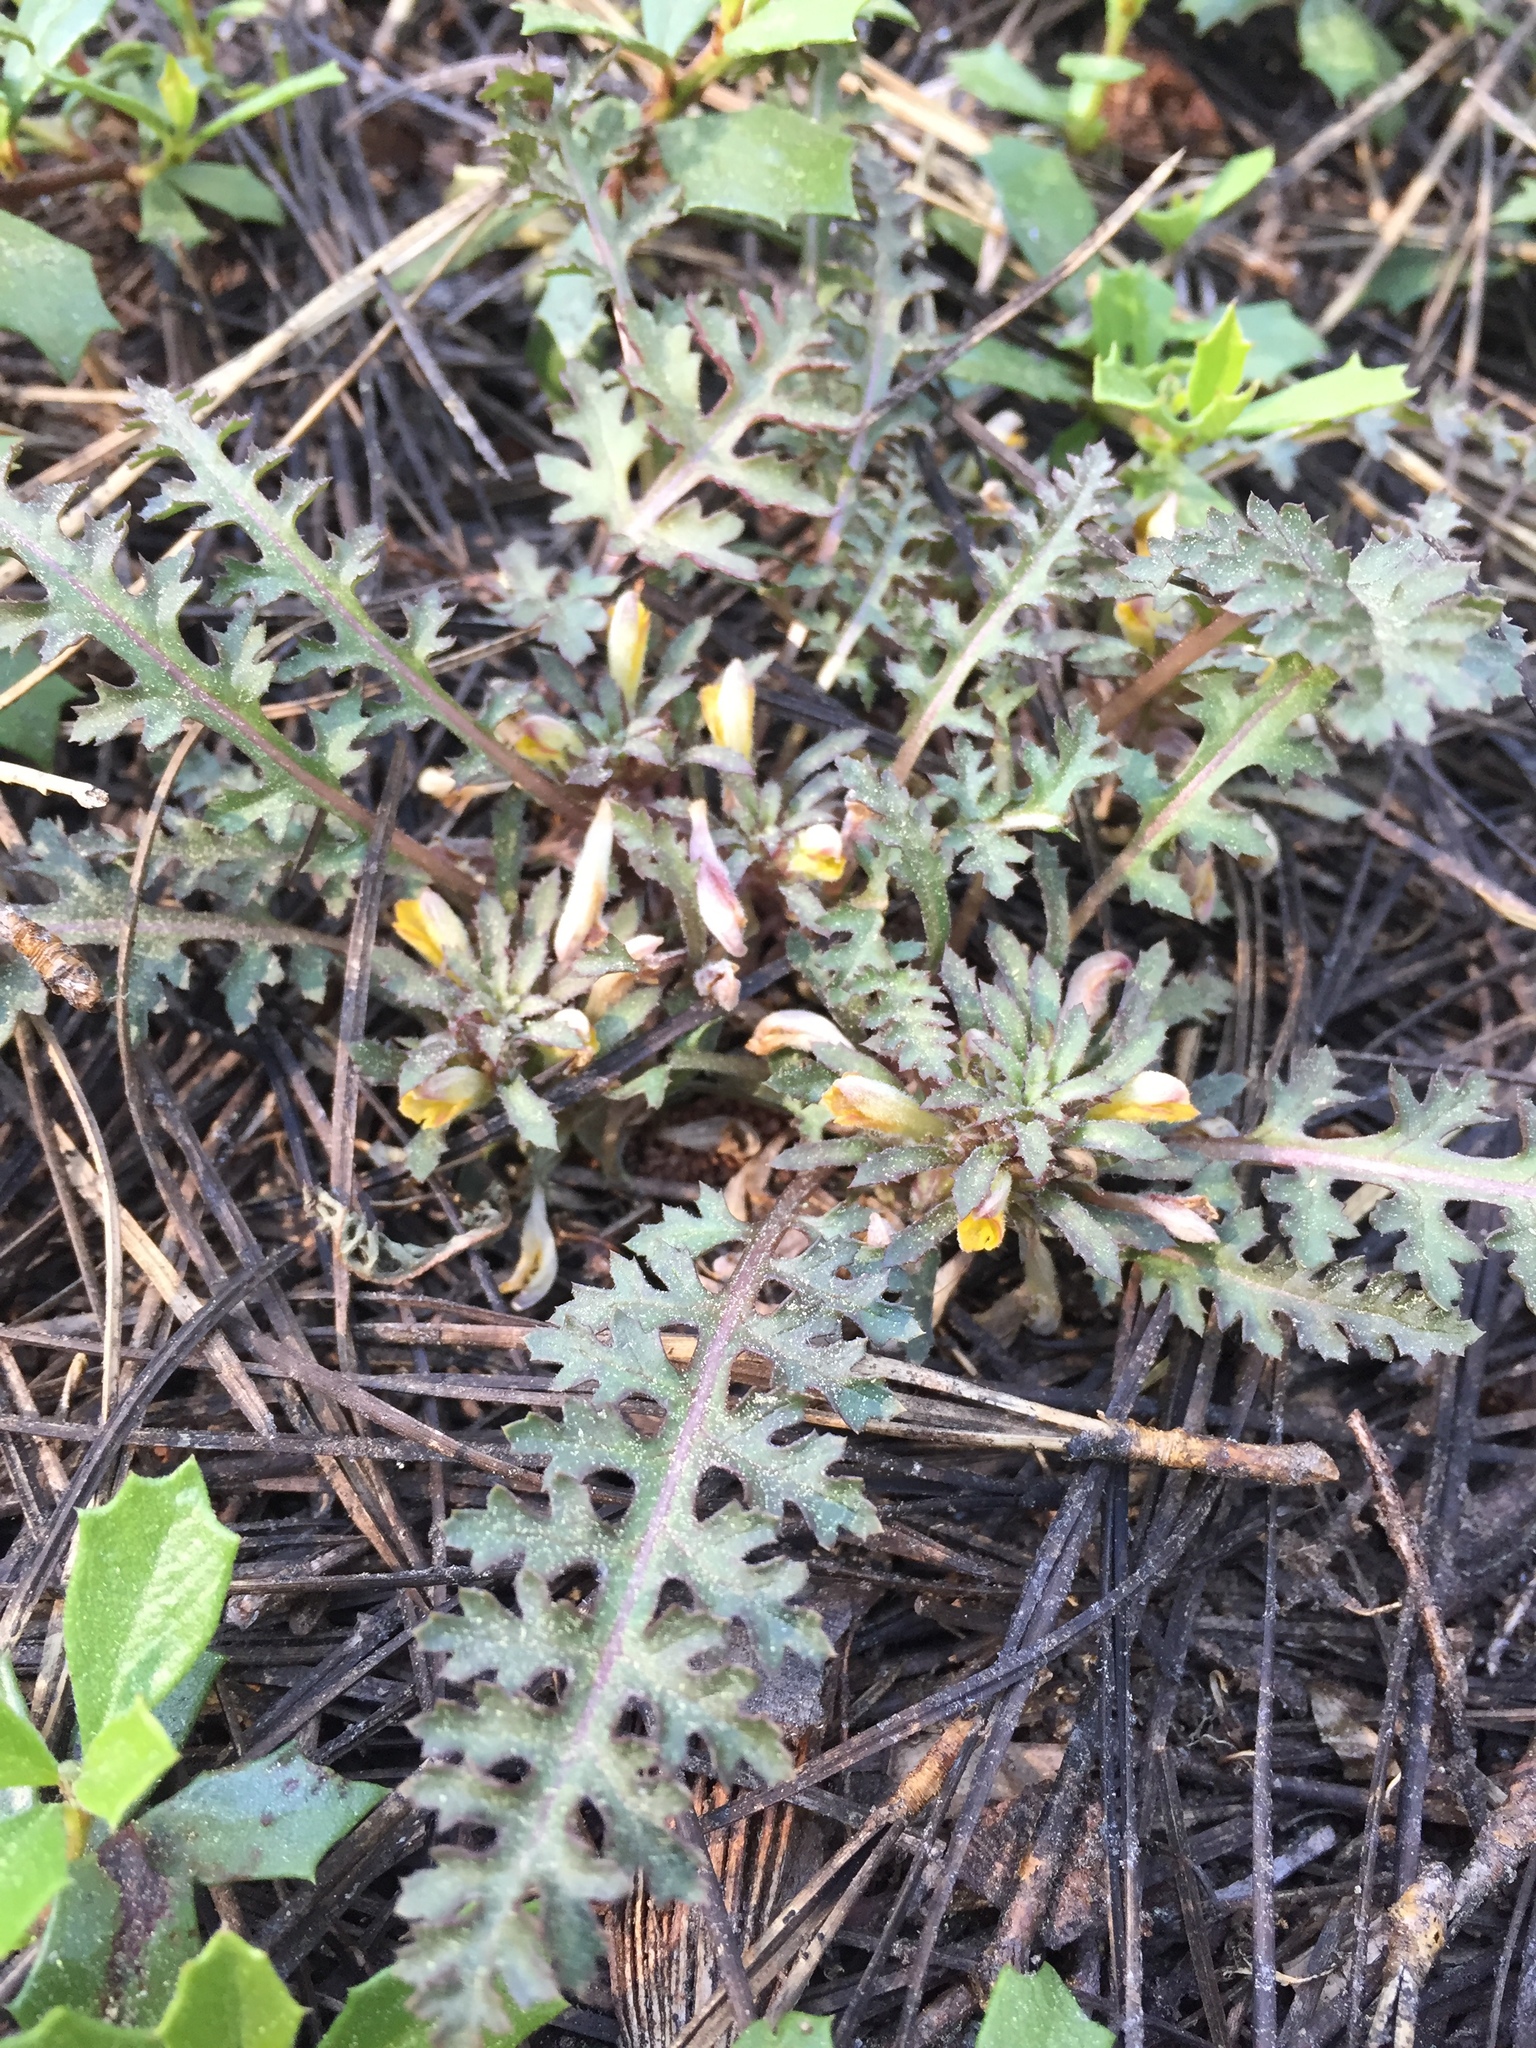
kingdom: Plantae
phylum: Tracheophyta
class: Magnoliopsida
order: Lamiales
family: Orobanchaceae
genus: Pedicularis
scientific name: Pedicularis semibarbata
